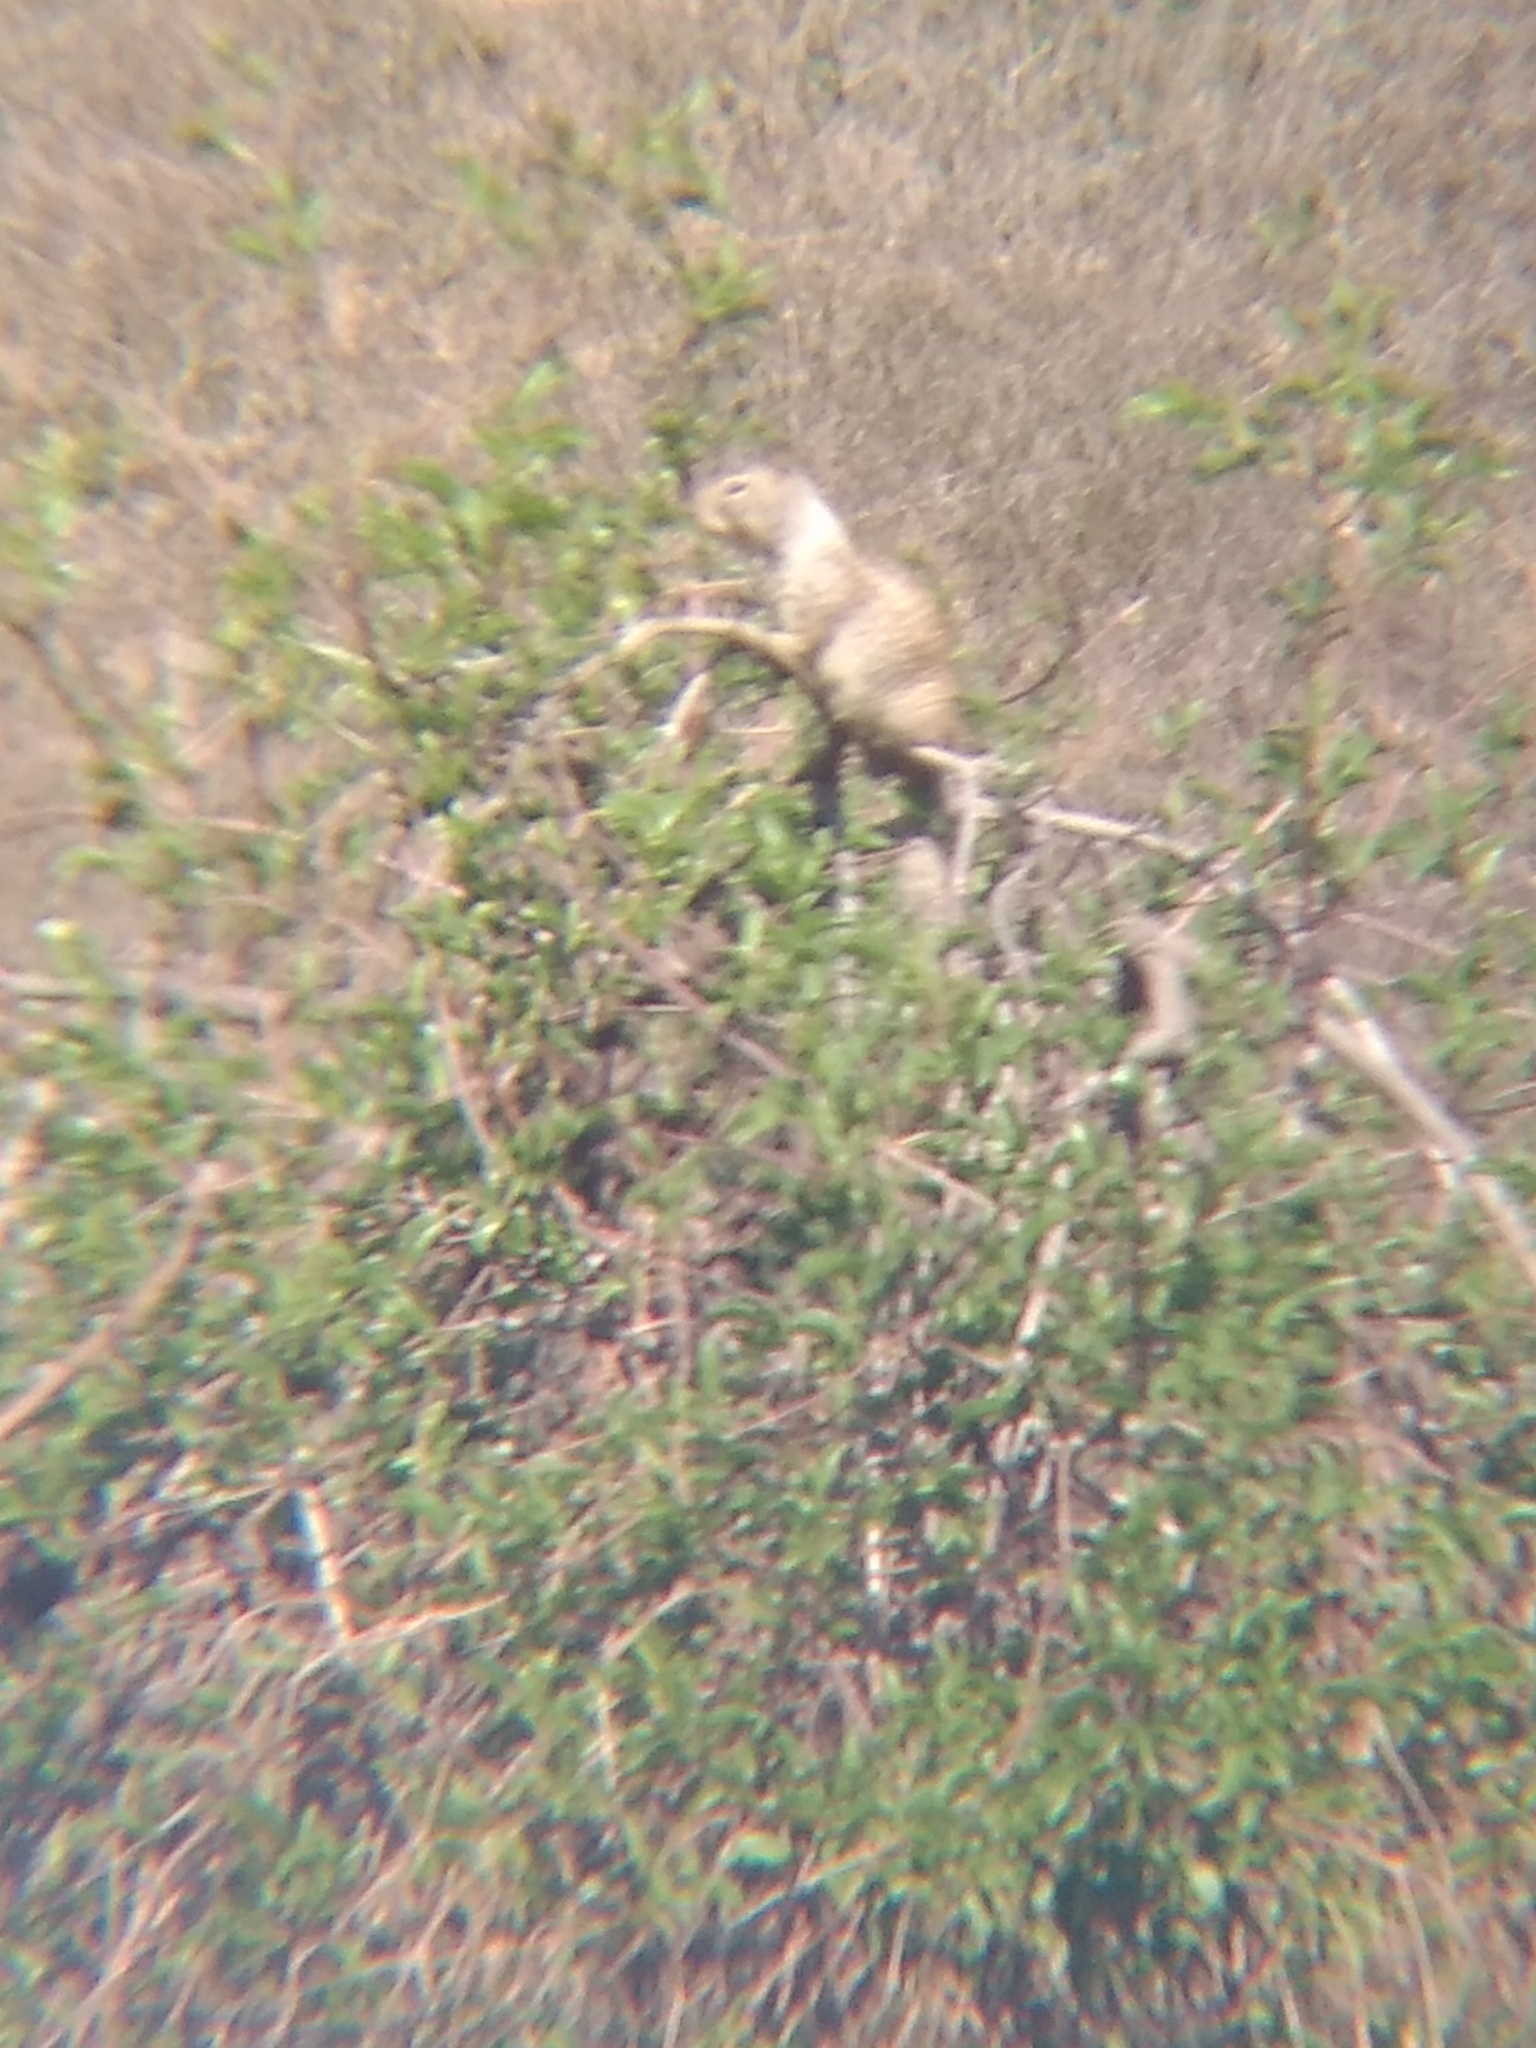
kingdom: Animalia
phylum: Chordata
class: Mammalia
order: Rodentia
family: Sciuridae
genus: Otospermophilus
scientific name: Otospermophilus beecheyi
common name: California ground squirrel
